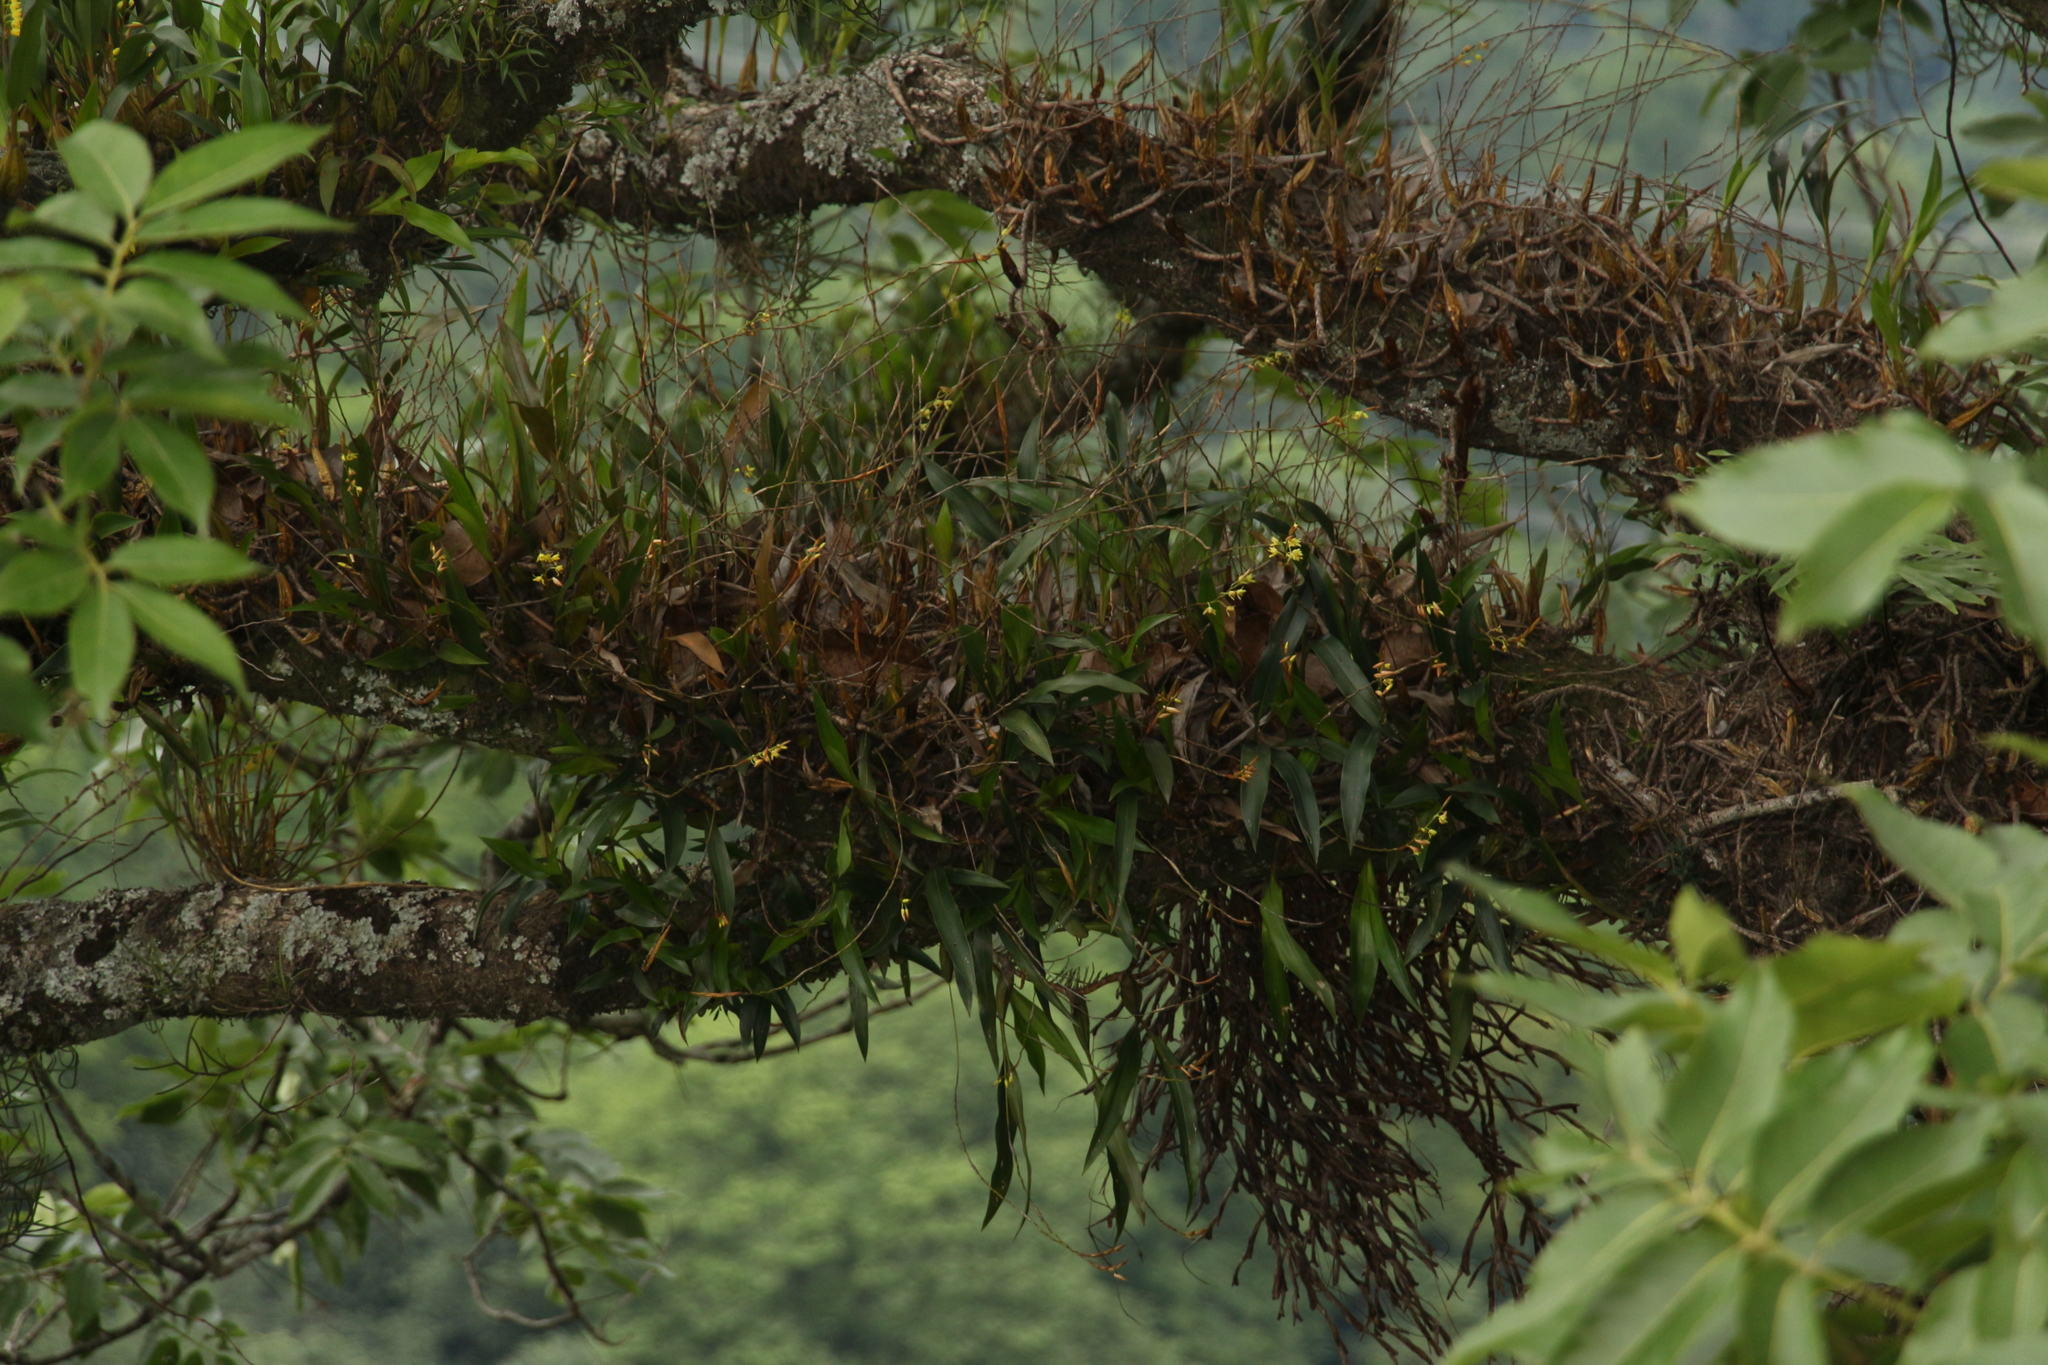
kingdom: Plantae
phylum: Tracheophyta
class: Liliopsida
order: Asparagales
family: Orchidaceae
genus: Coelogyne
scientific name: Coelogyne prolifera
